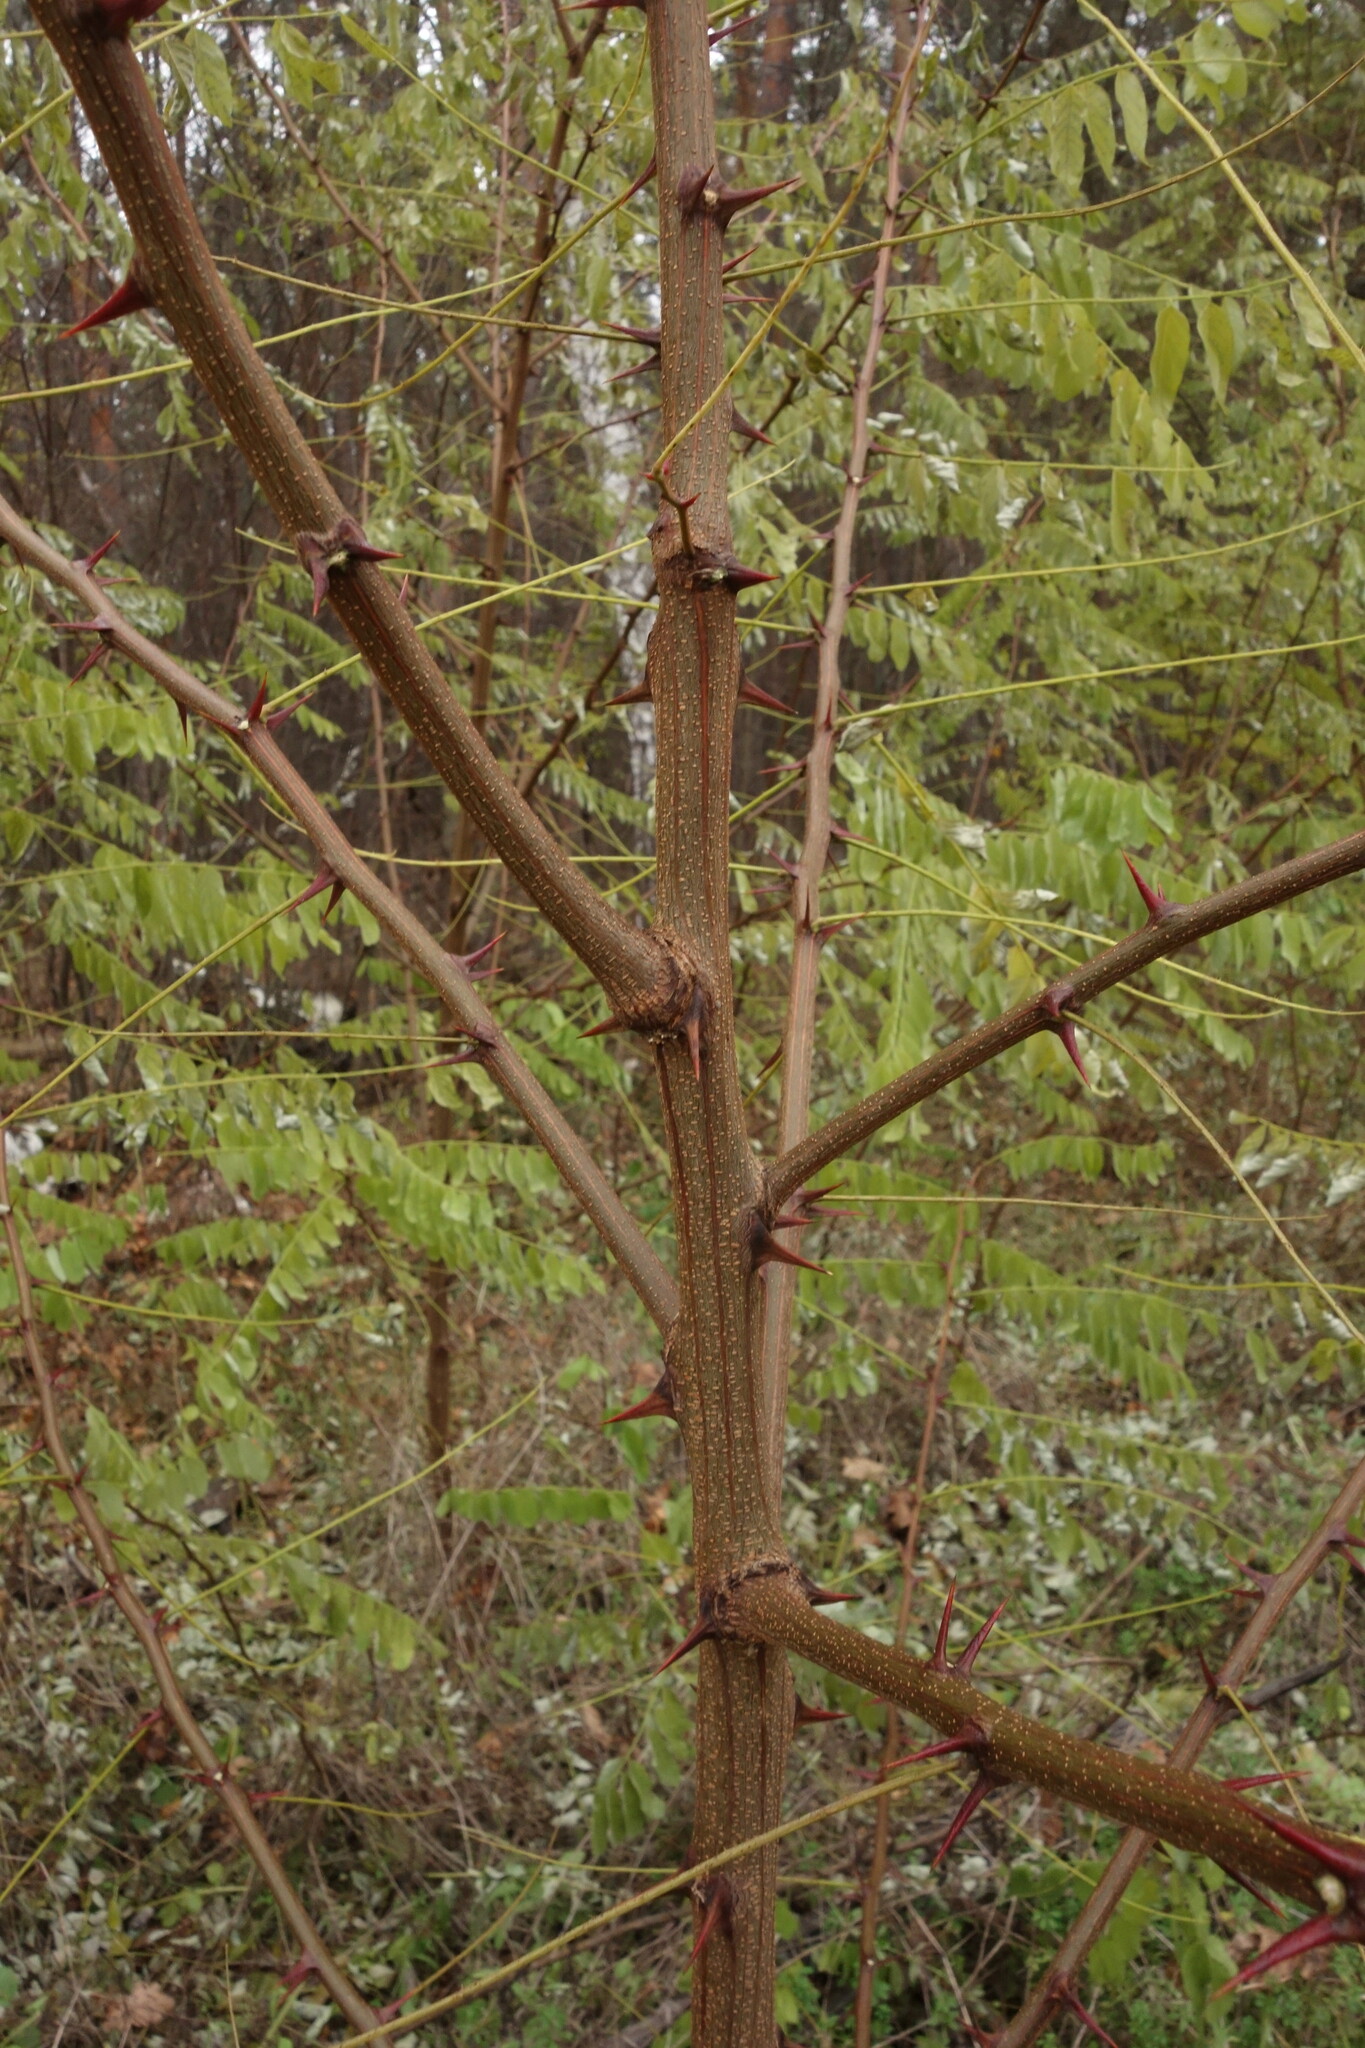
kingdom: Plantae
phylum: Tracheophyta
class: Magnoliopsida
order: Fabales
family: Fabaceae
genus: Robinia
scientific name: Robinia pseudoacacia
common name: Black locust
